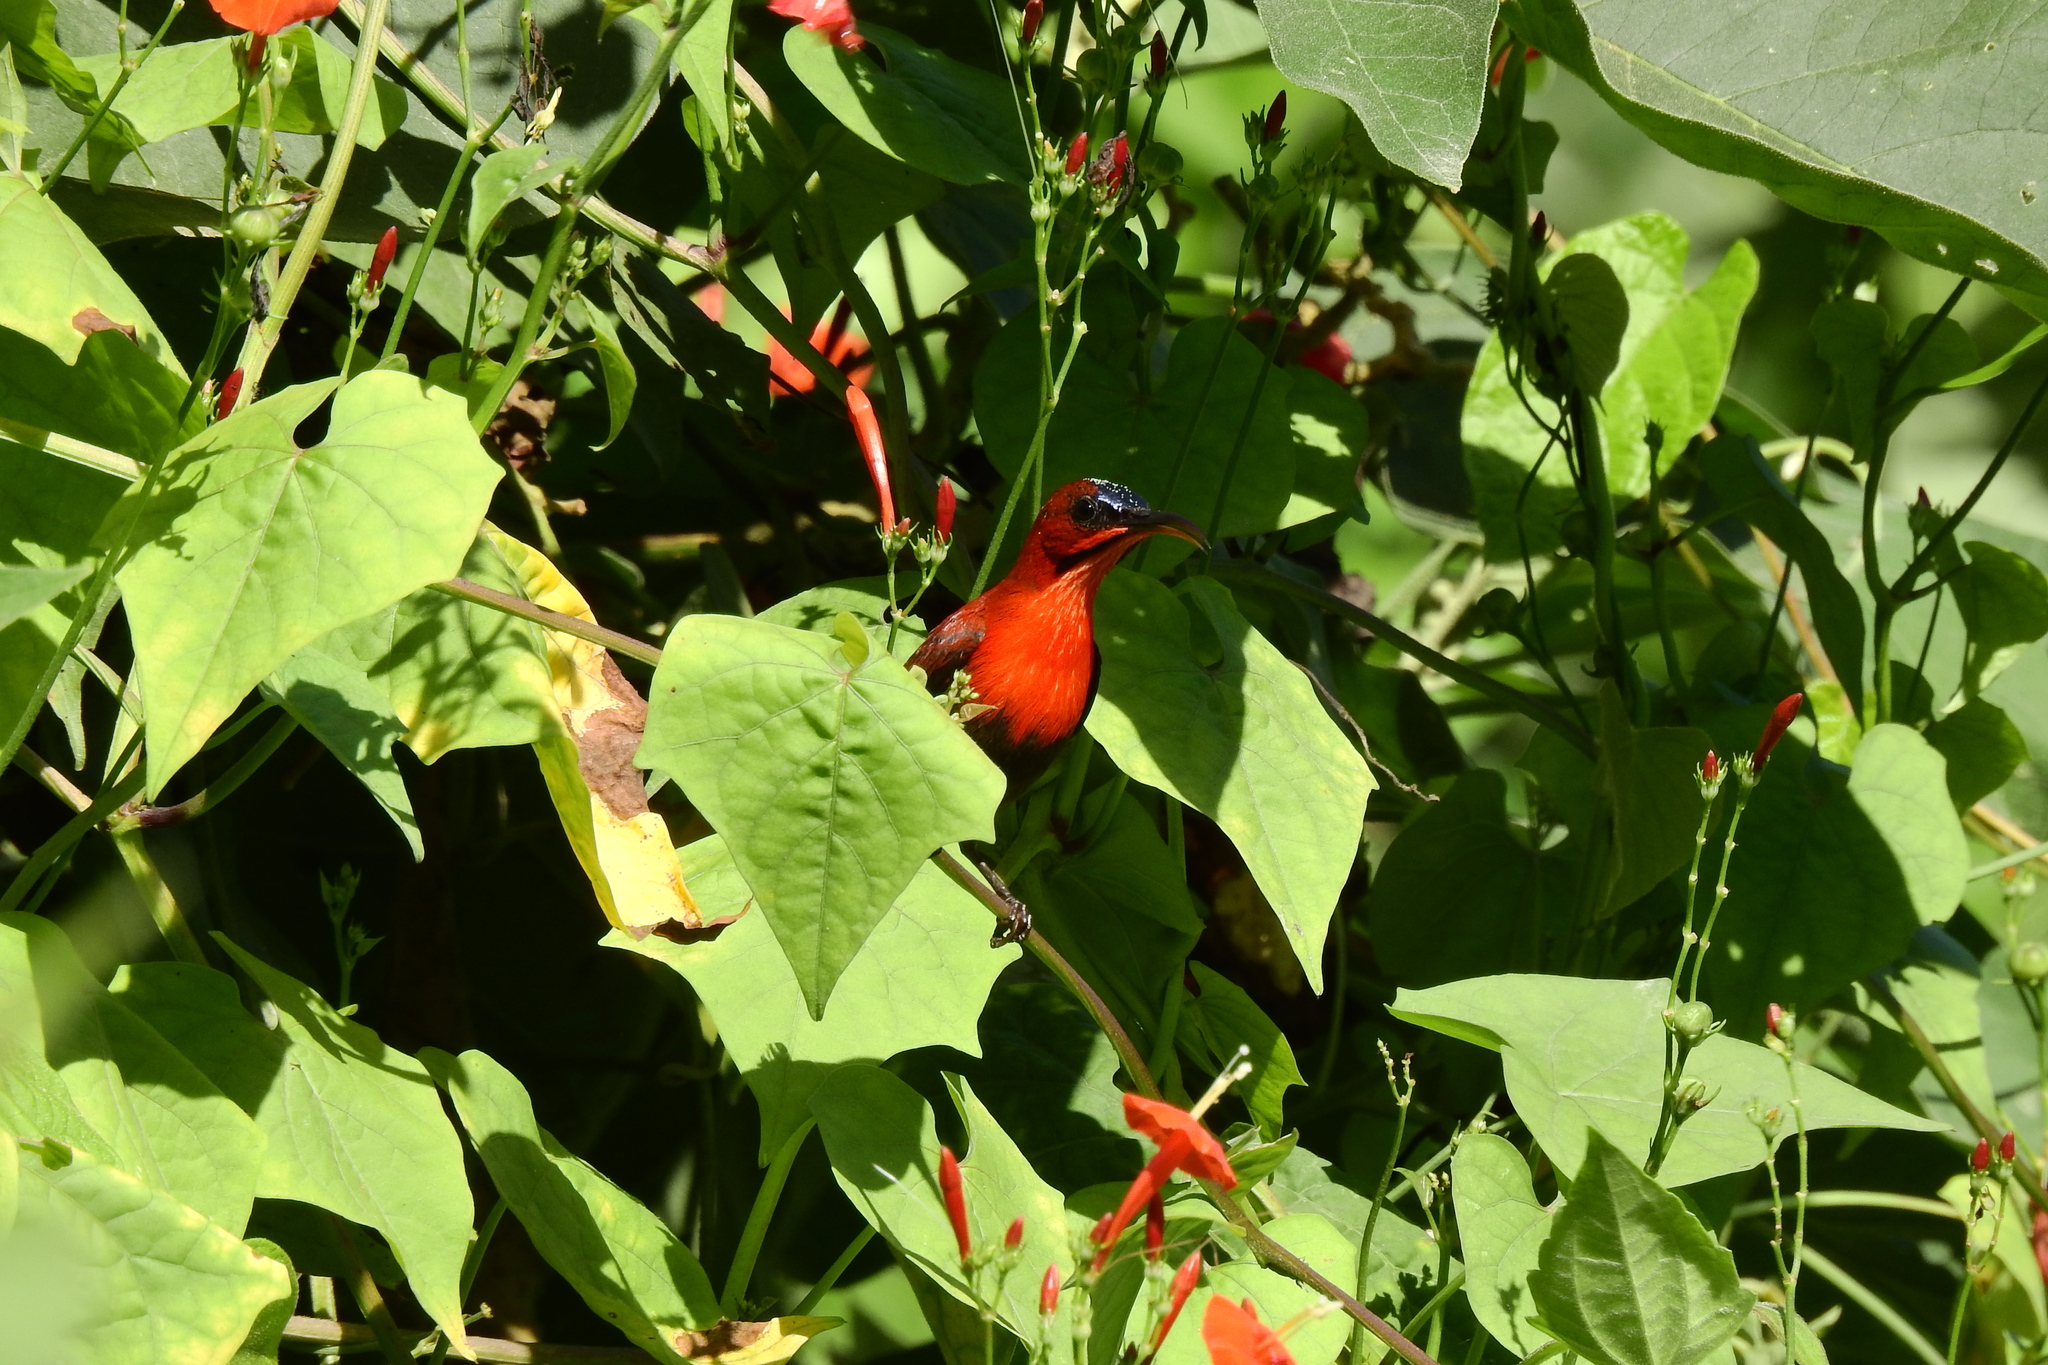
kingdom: Animalia
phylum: Chordata
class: Aves
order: Passeriformes
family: Nectariniidae
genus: Aethopyga
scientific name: Aethopyga siparaja
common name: Crimson sunbird
